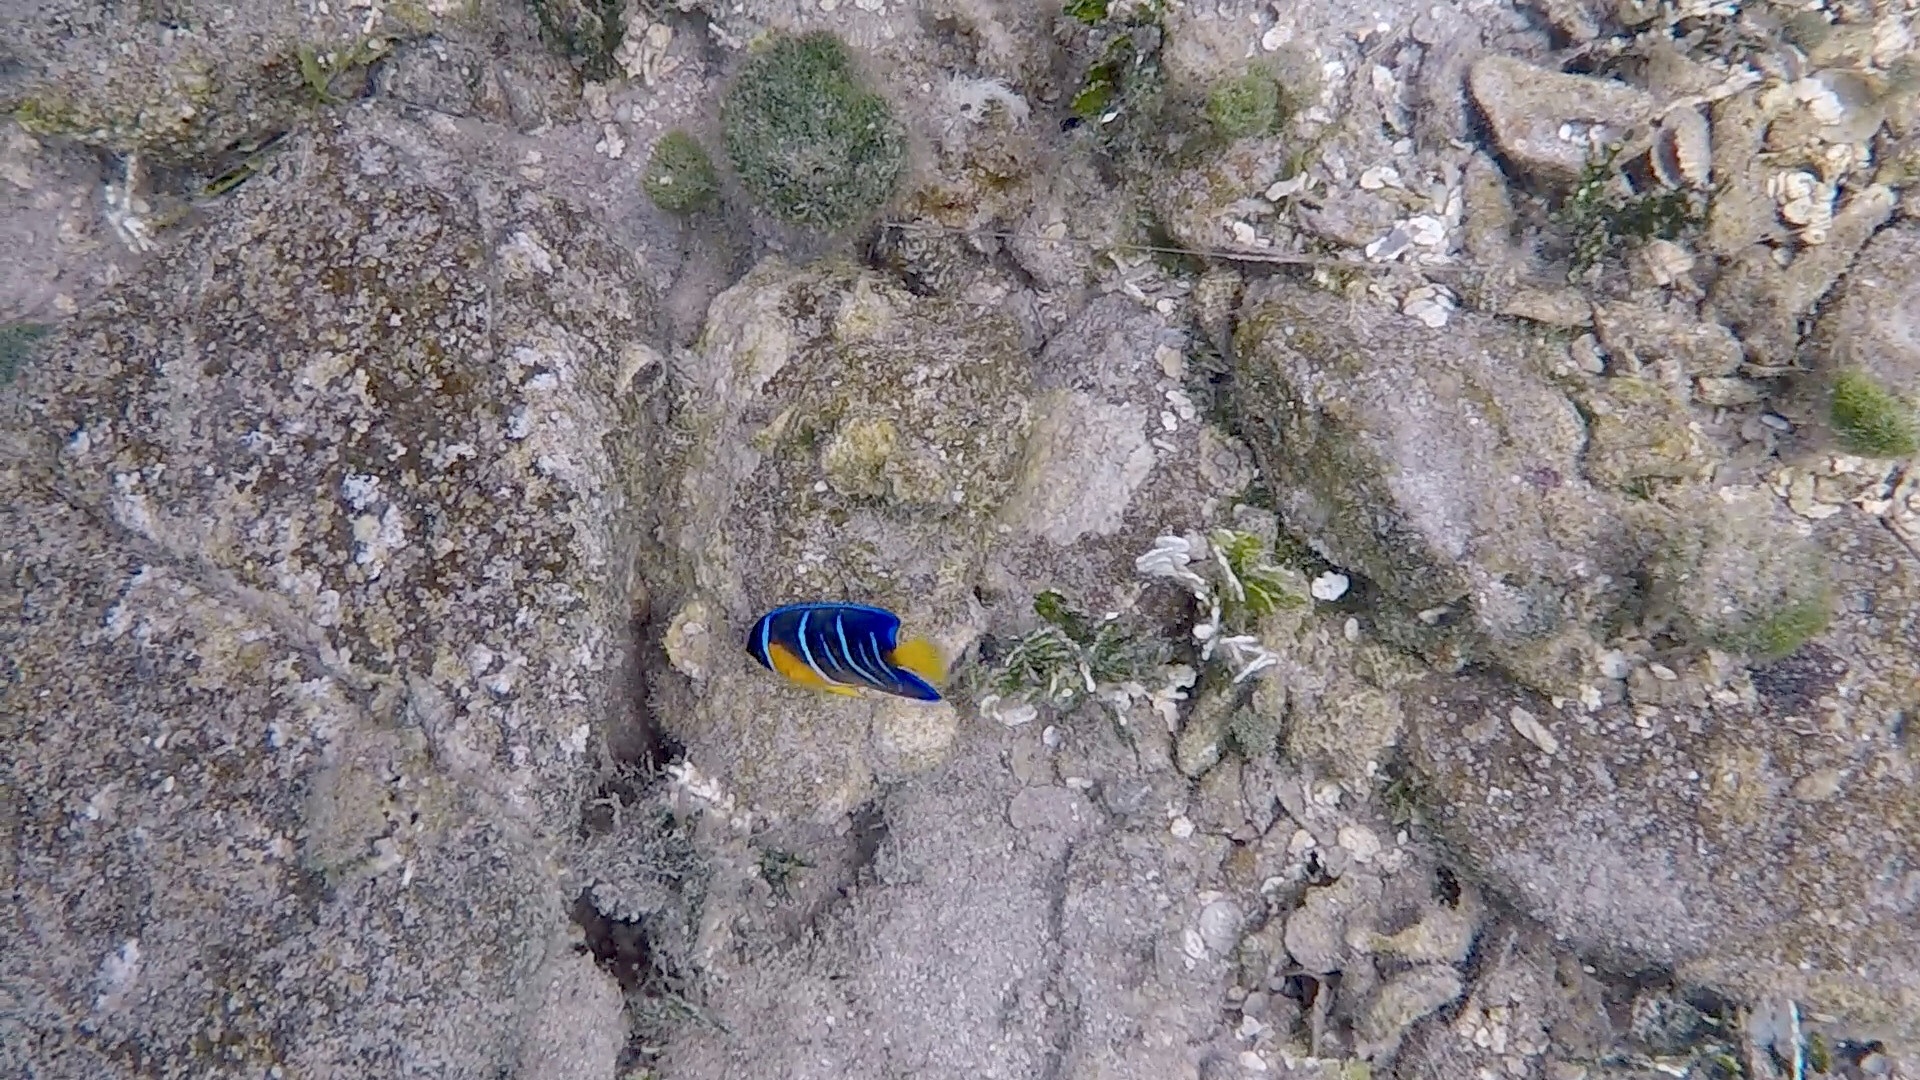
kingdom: Animalia
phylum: Chordata
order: Perciformes
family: Pomacanthidae
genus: Holacanthus
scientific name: Holacanthus ciliaris
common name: Queen angelfish
